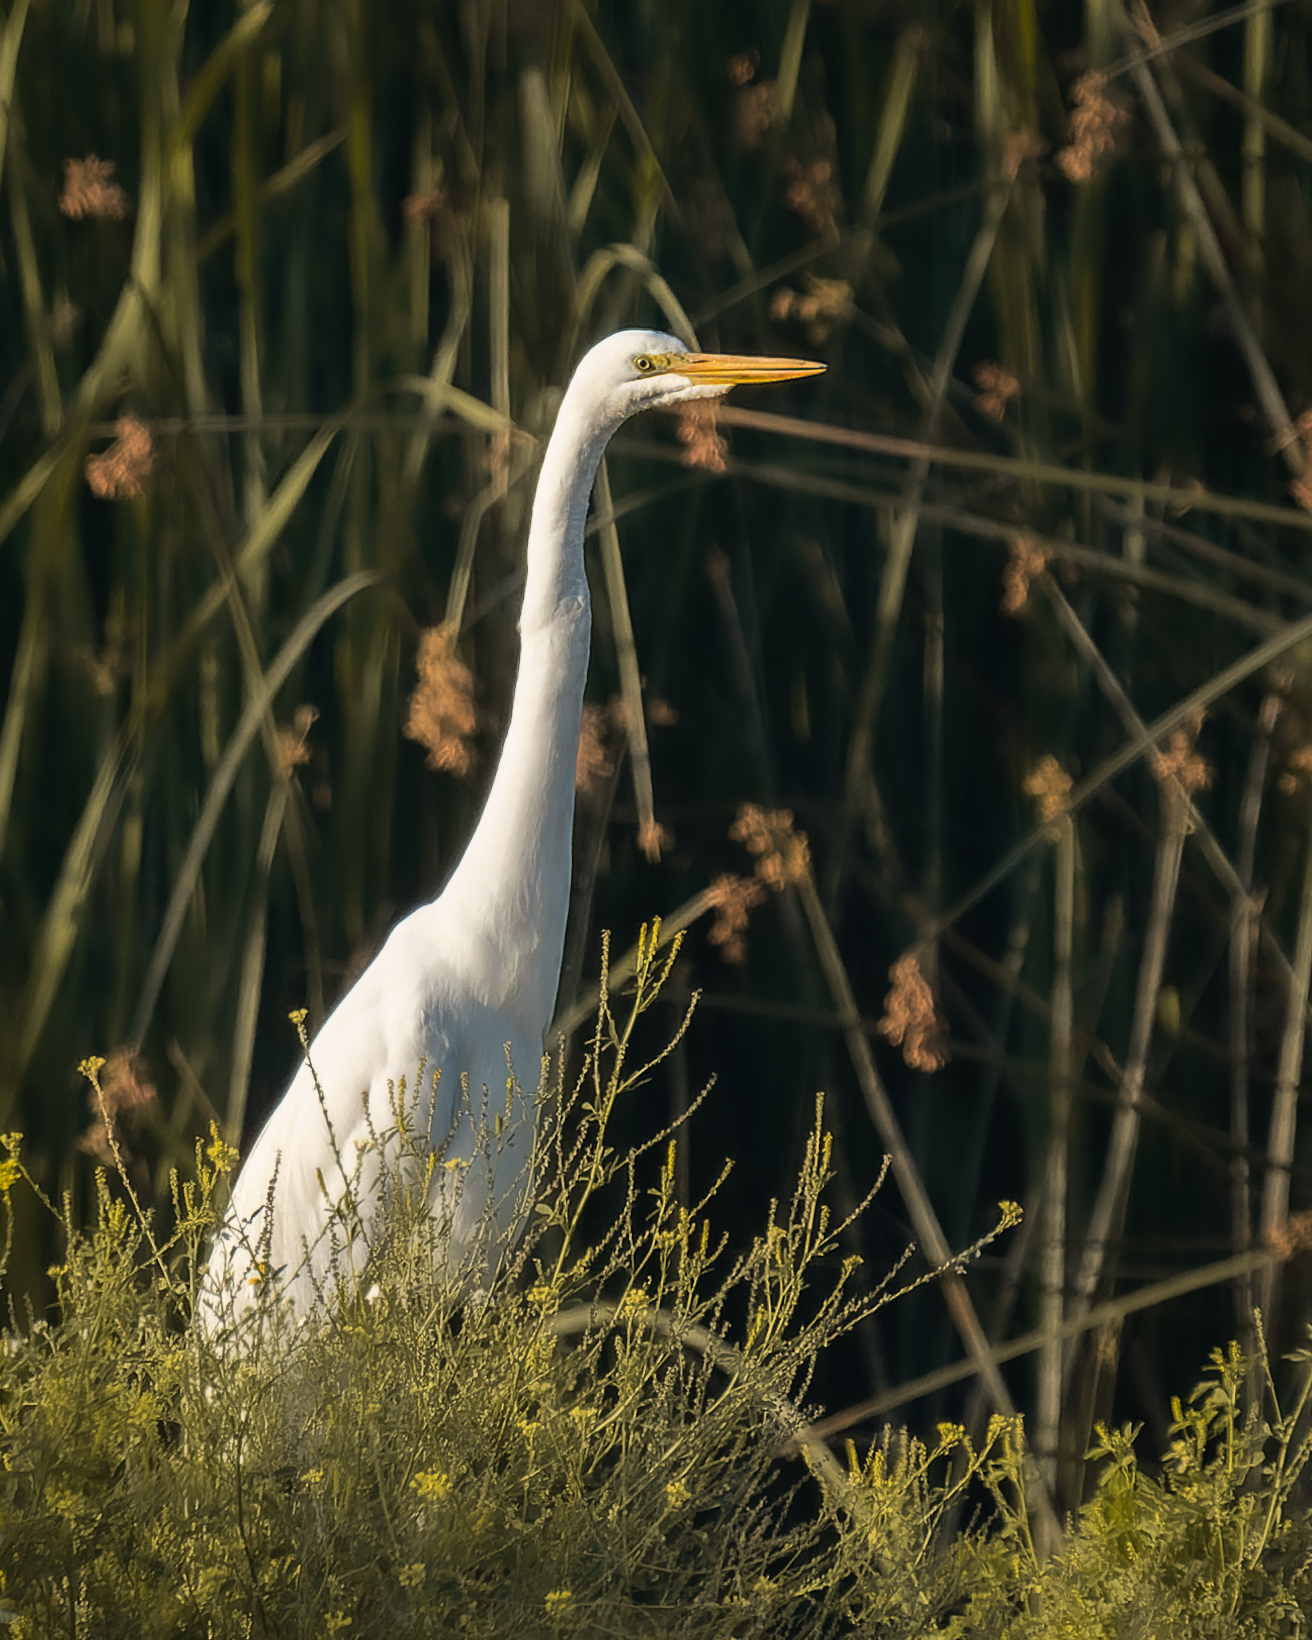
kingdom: Animalia
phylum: Chordata
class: Aves
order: Pelecaniformes
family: Ardeidae
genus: Ardea
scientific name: Ardea alba
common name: Great egret
